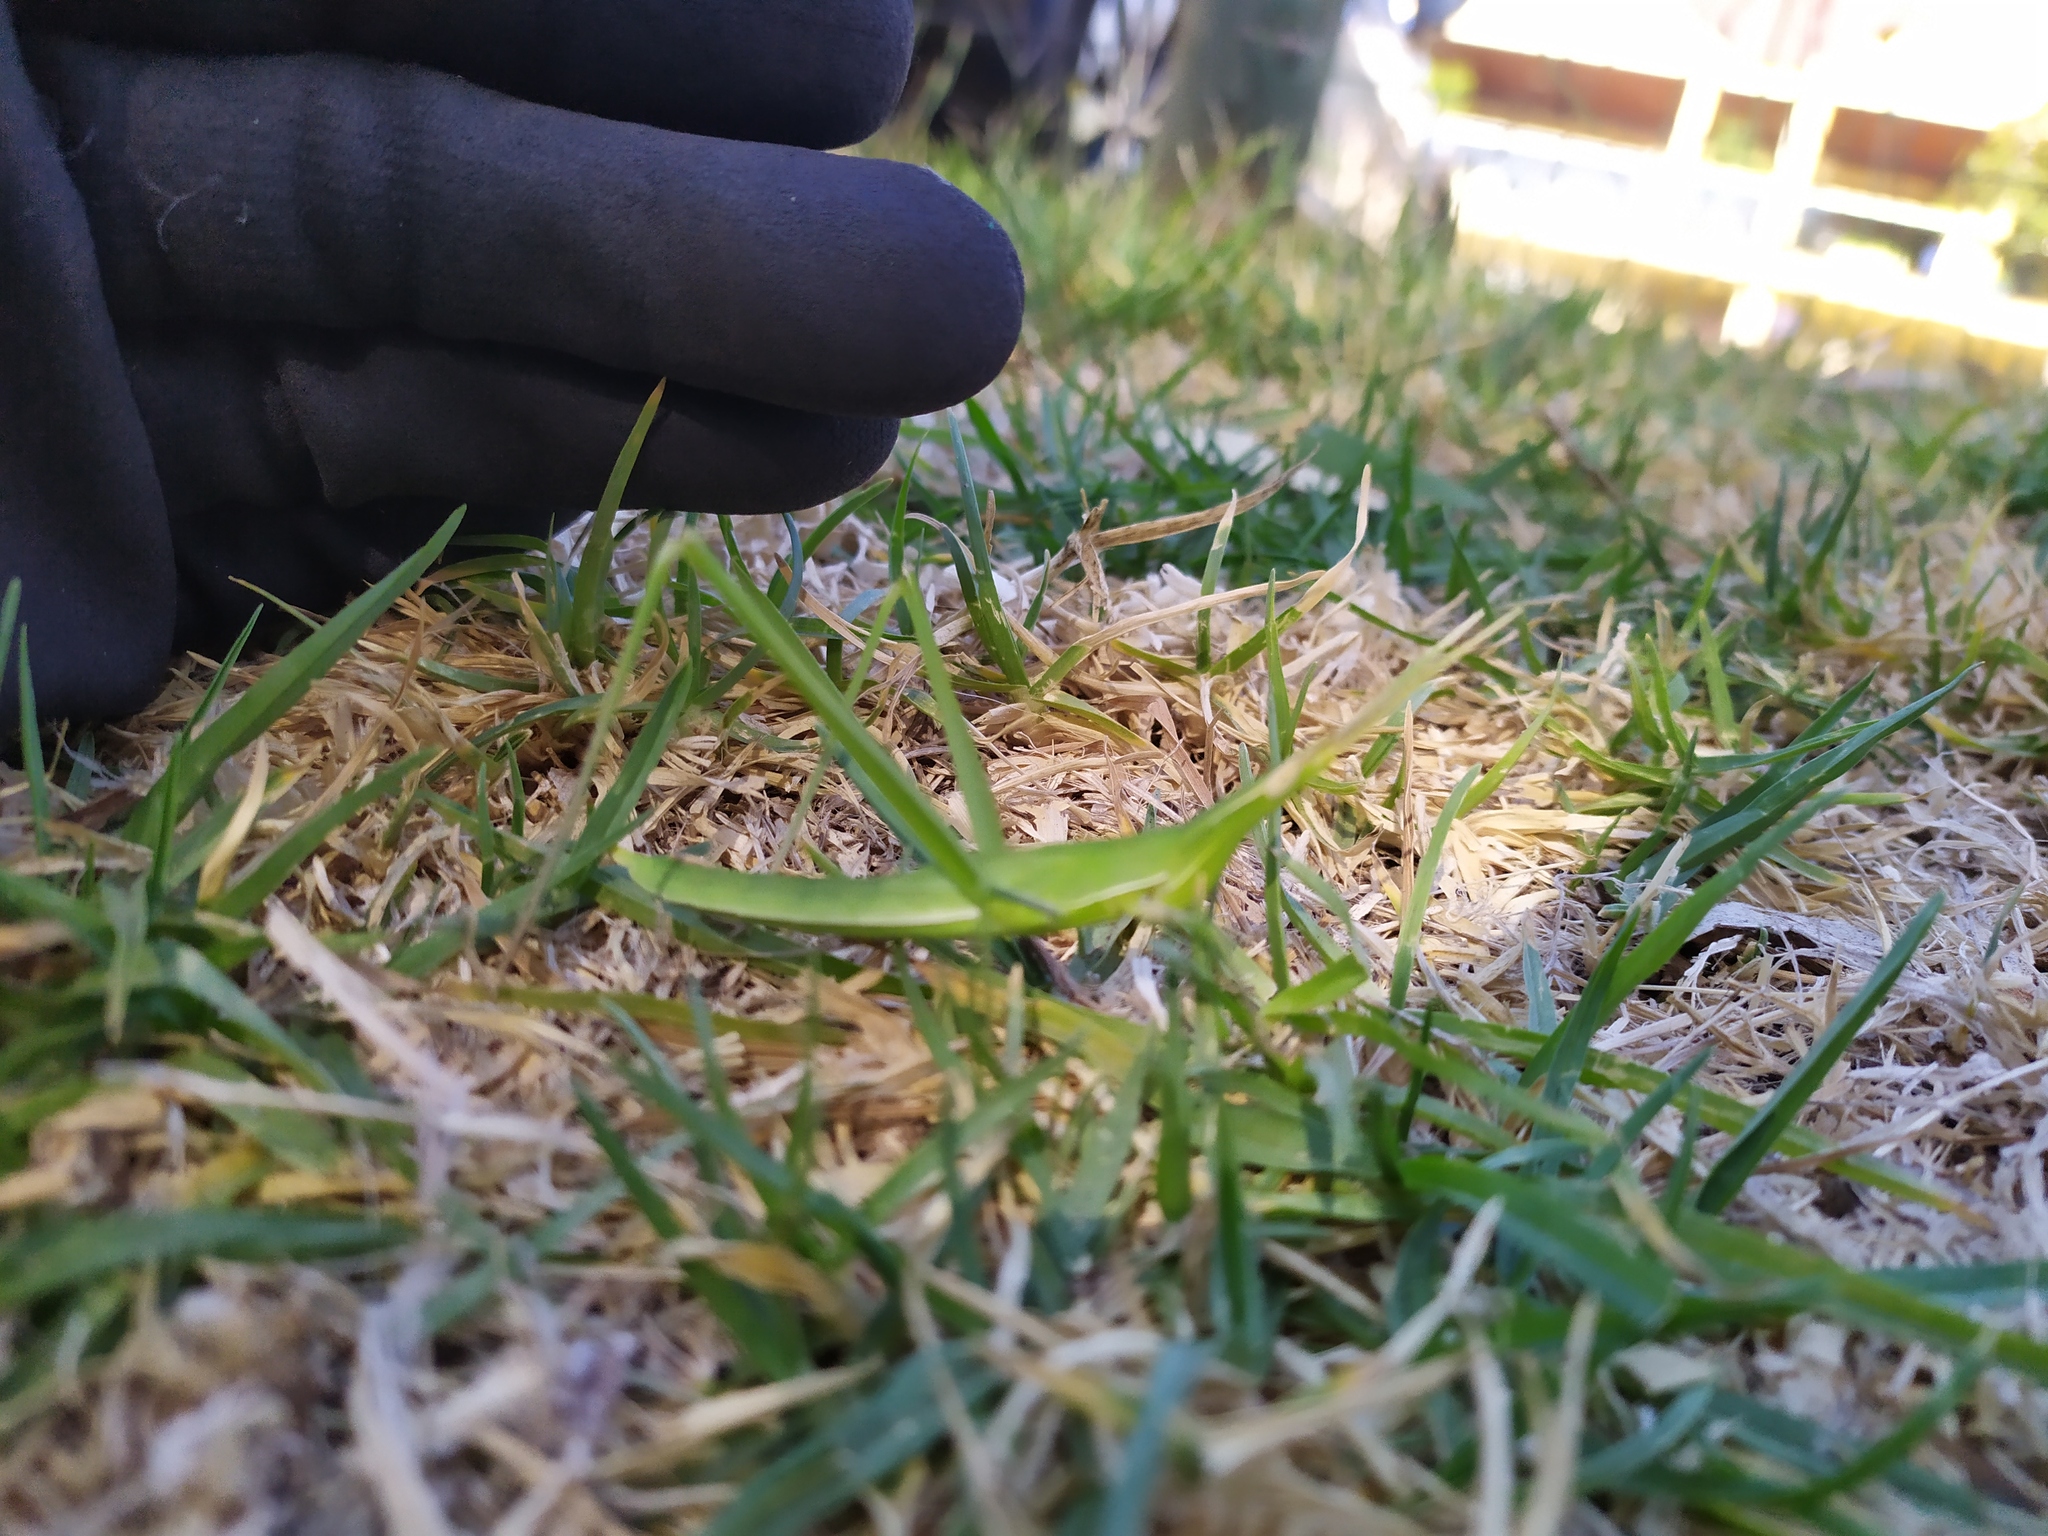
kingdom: Animalia
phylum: Arthropoda
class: Insecta
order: Orthoptera
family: Acrididae
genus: Acrida
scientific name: Acrida conica
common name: Giant green slantface
